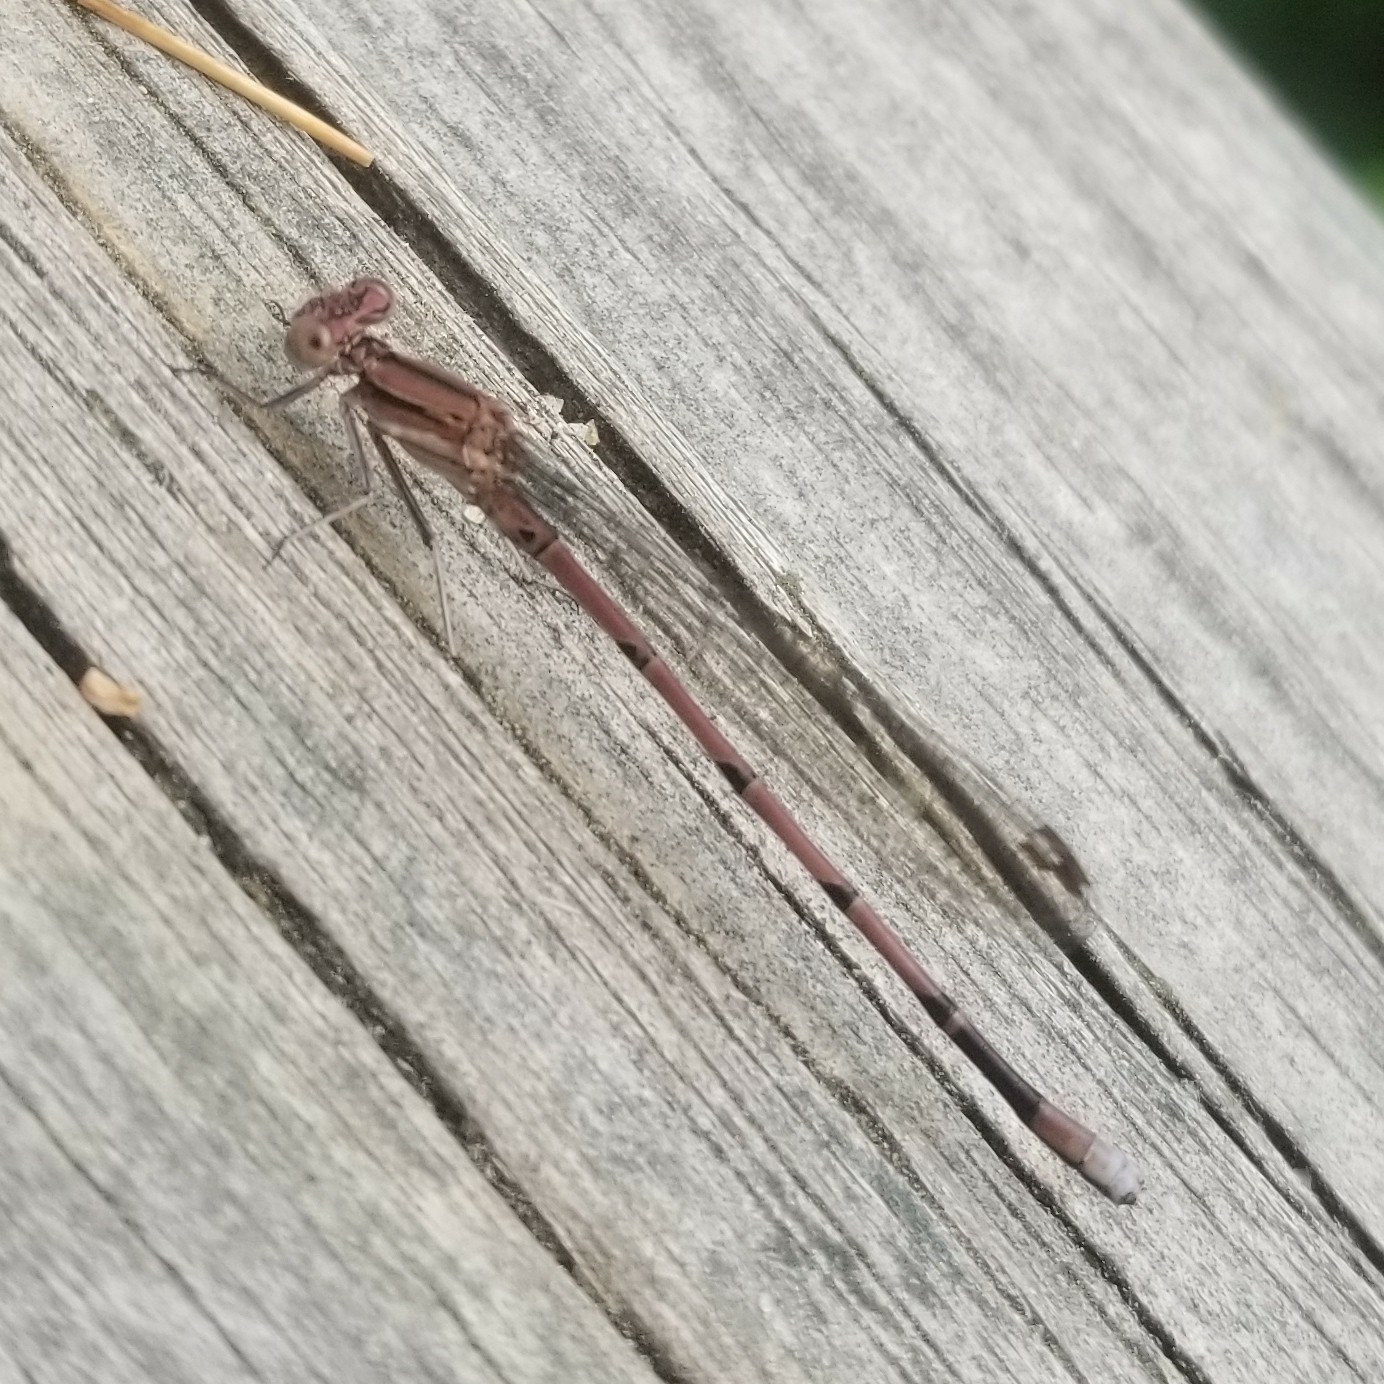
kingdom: Animalia
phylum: Arthropoda
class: Insecta
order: Odonata
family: Coenagrionidae
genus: Argia
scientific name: Argia fumipennis
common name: Variable dancer
